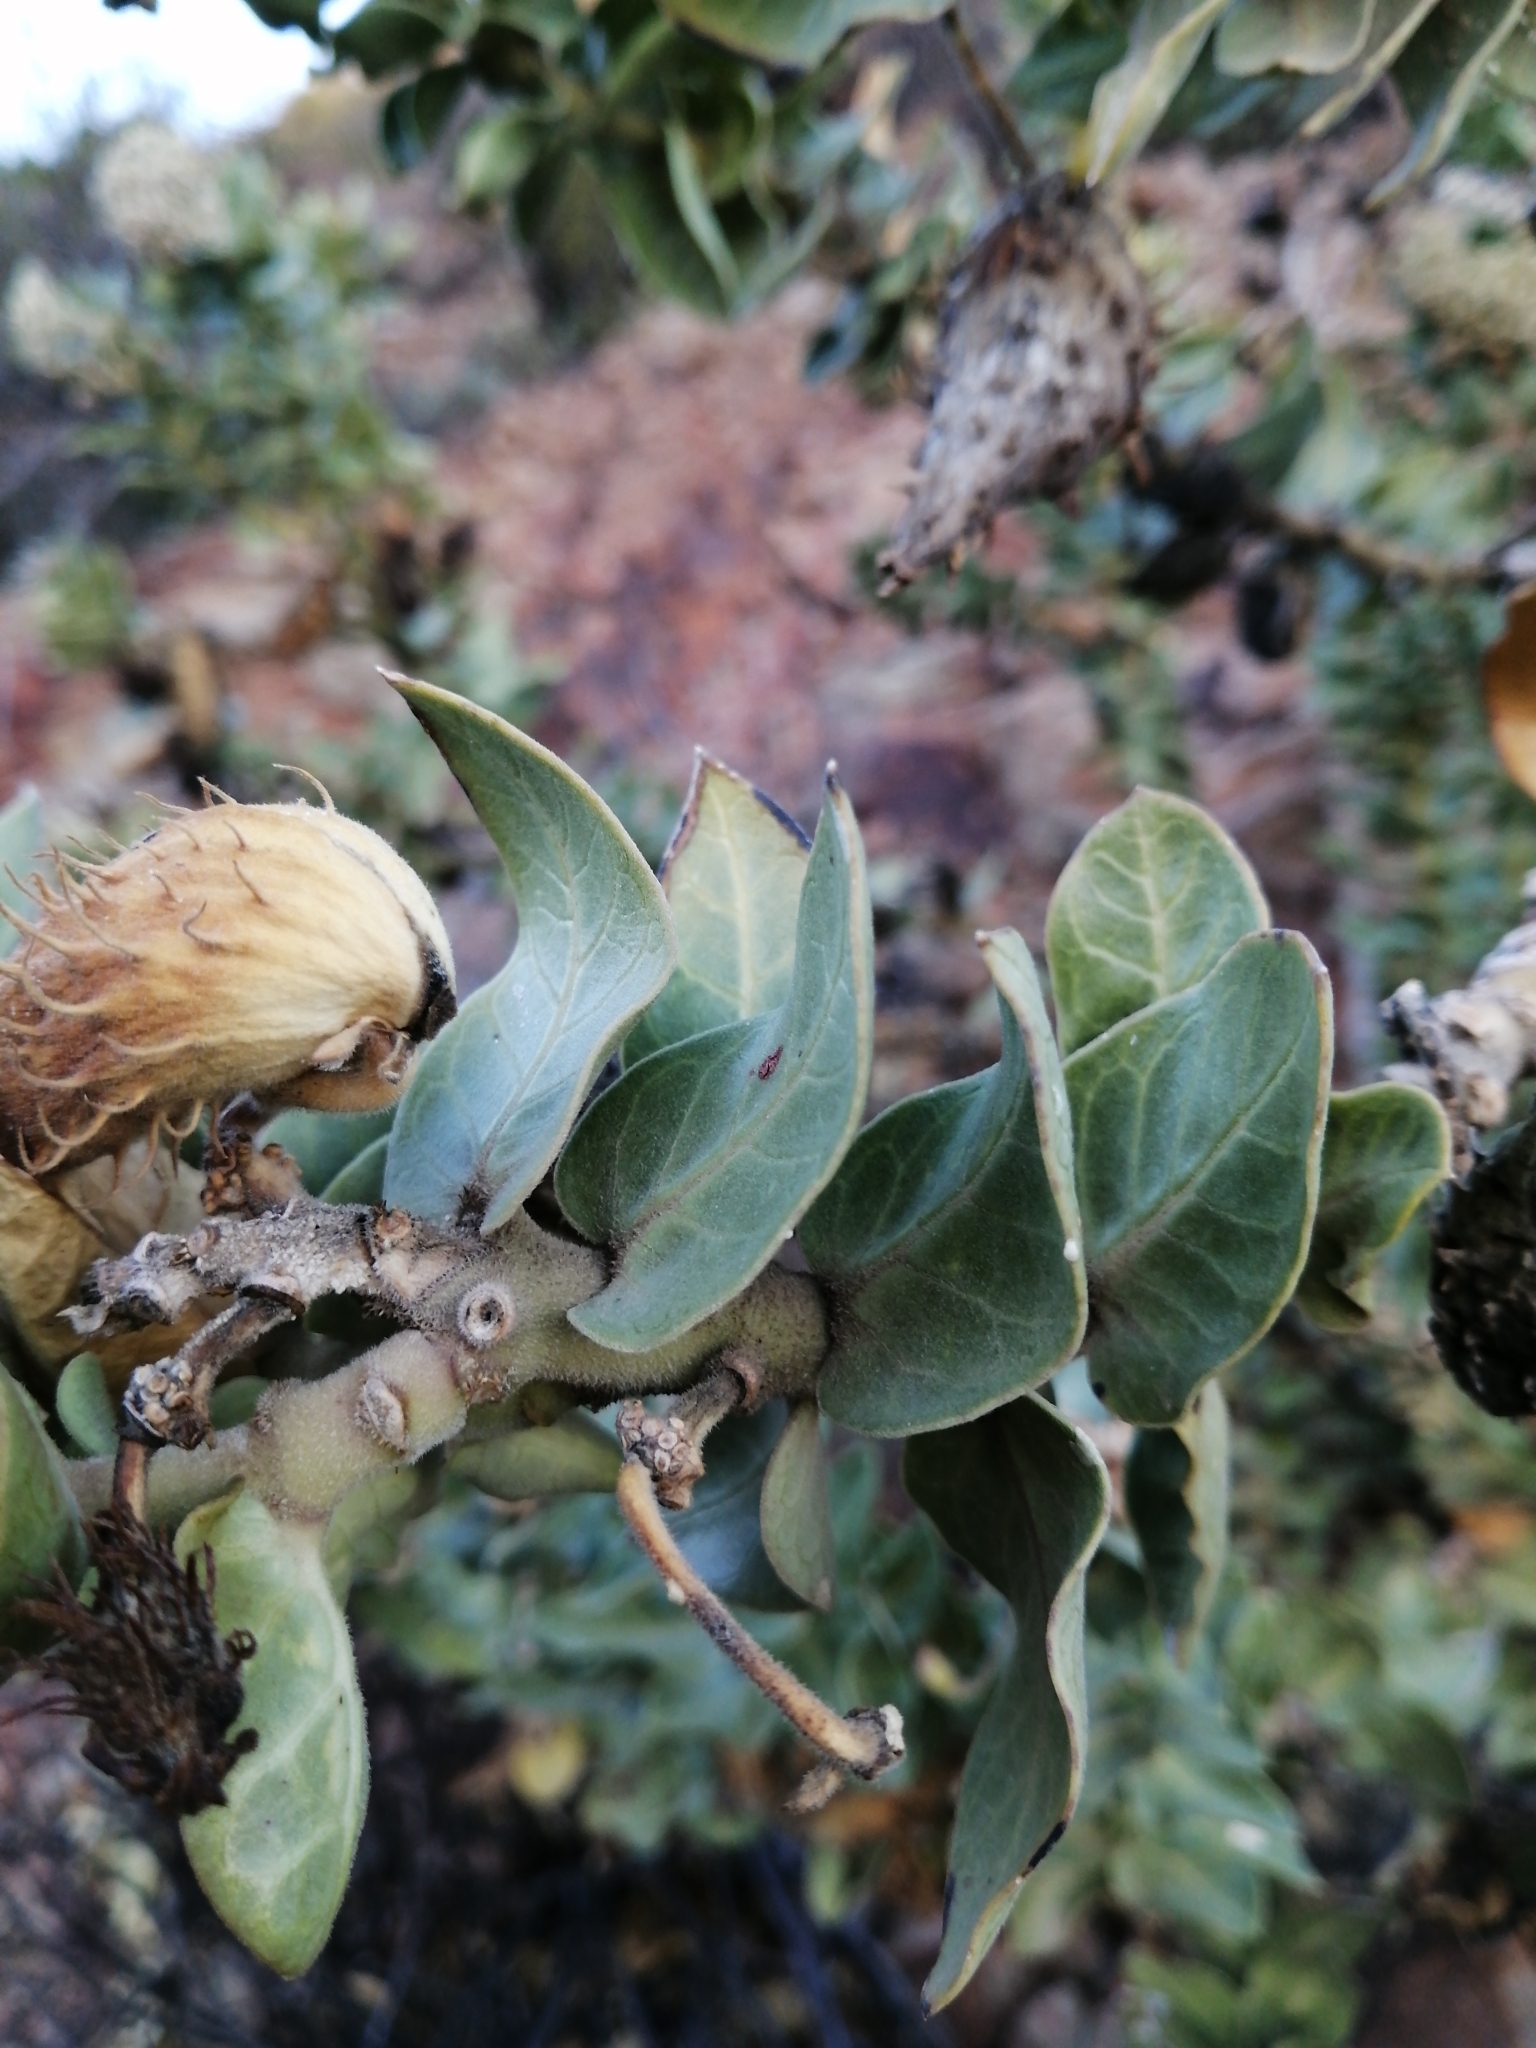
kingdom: Plantae
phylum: Tracheophyta
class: Magnoliopsida
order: Gentianales
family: Apocynaceae
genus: Gomphocarpus
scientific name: Gomphocarpus cancellatus
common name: Wild cotton
